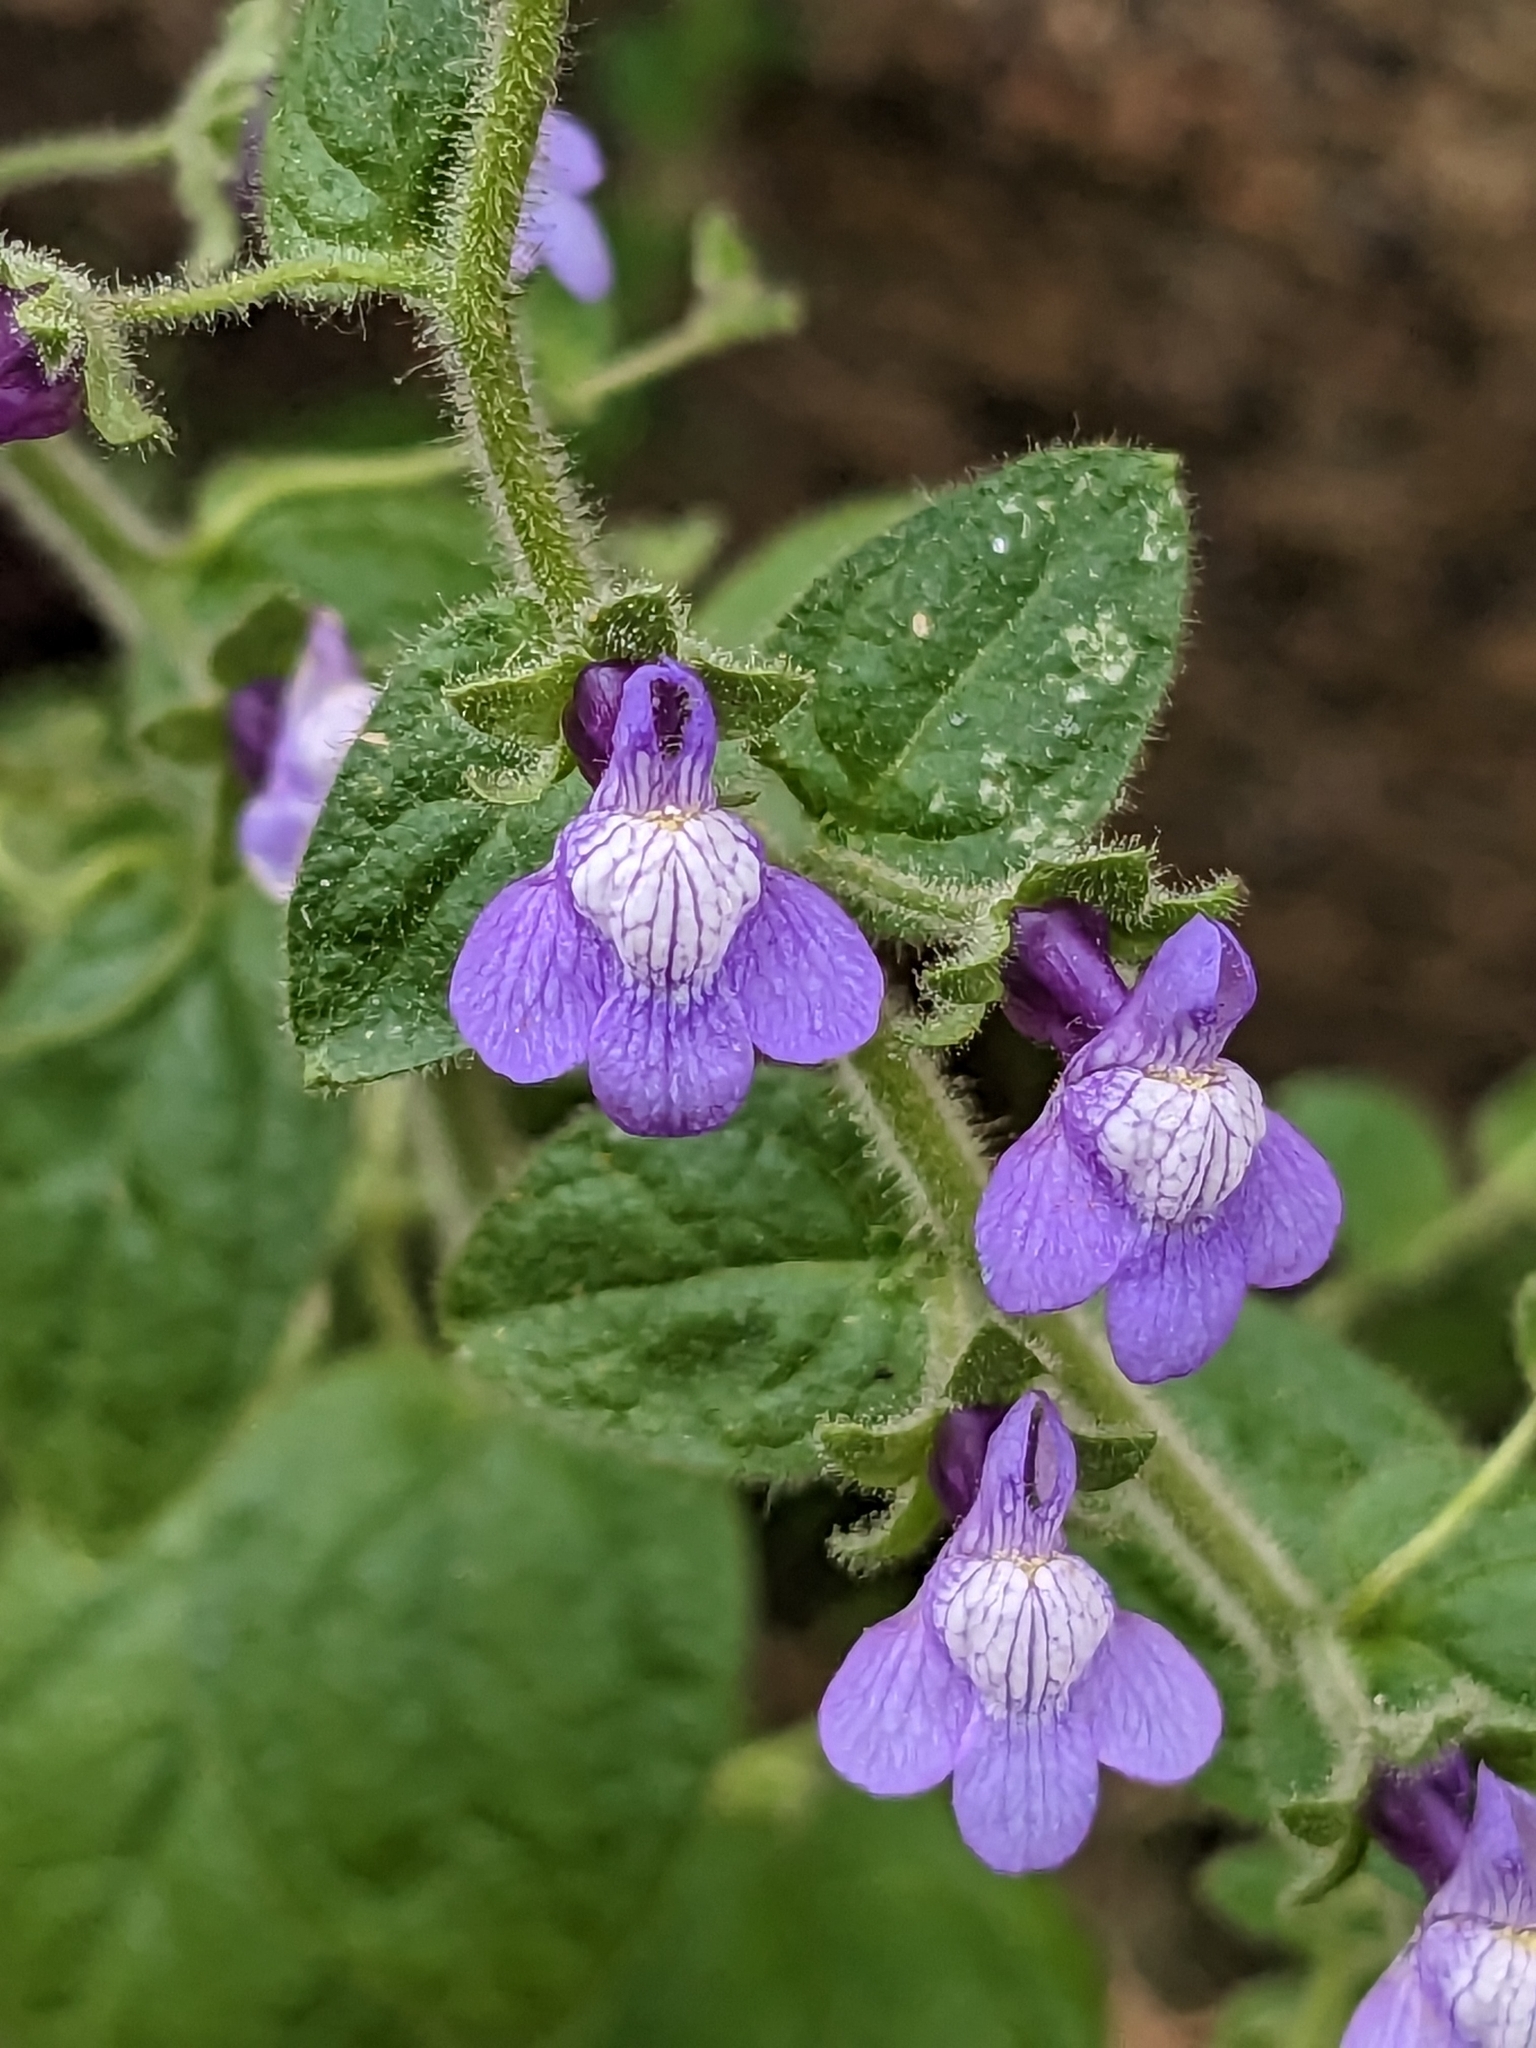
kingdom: Plantae
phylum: Tracheophyta
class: Magnoliopsida
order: Lamiales
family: Plantaginaceae
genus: Sairocarpus
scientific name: Sairocarpus nuttallianus
